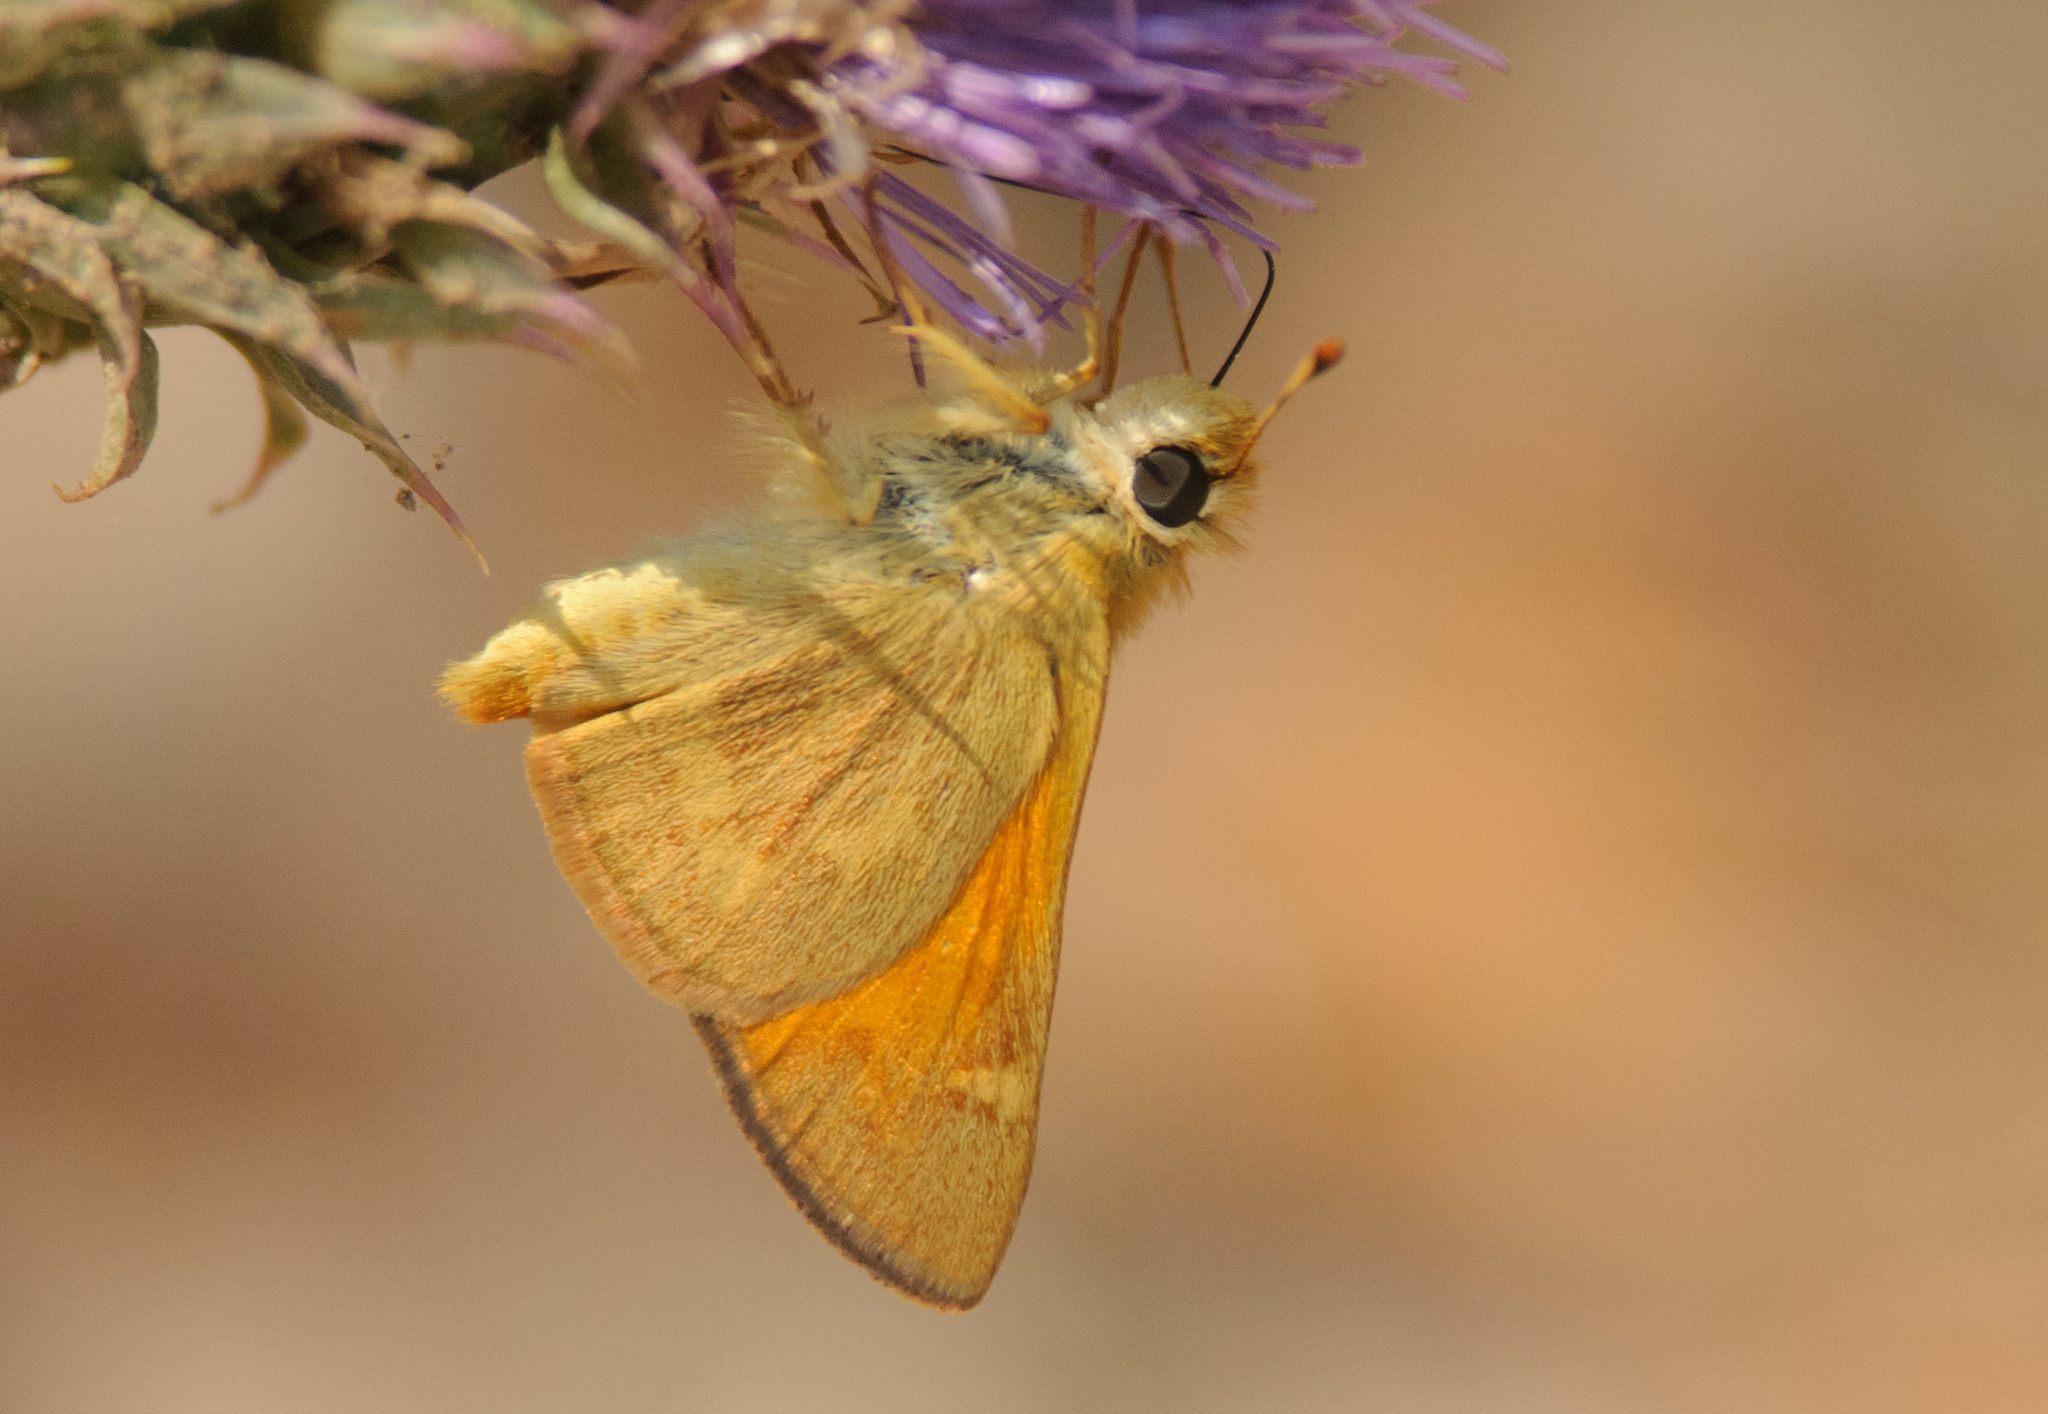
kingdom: Animalia
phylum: Arthropoda
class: Insecta
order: Lepidoptera
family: Hesperiidae
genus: Ochlodes
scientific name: Ochlodes sylvanoides
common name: Woodland skipper
